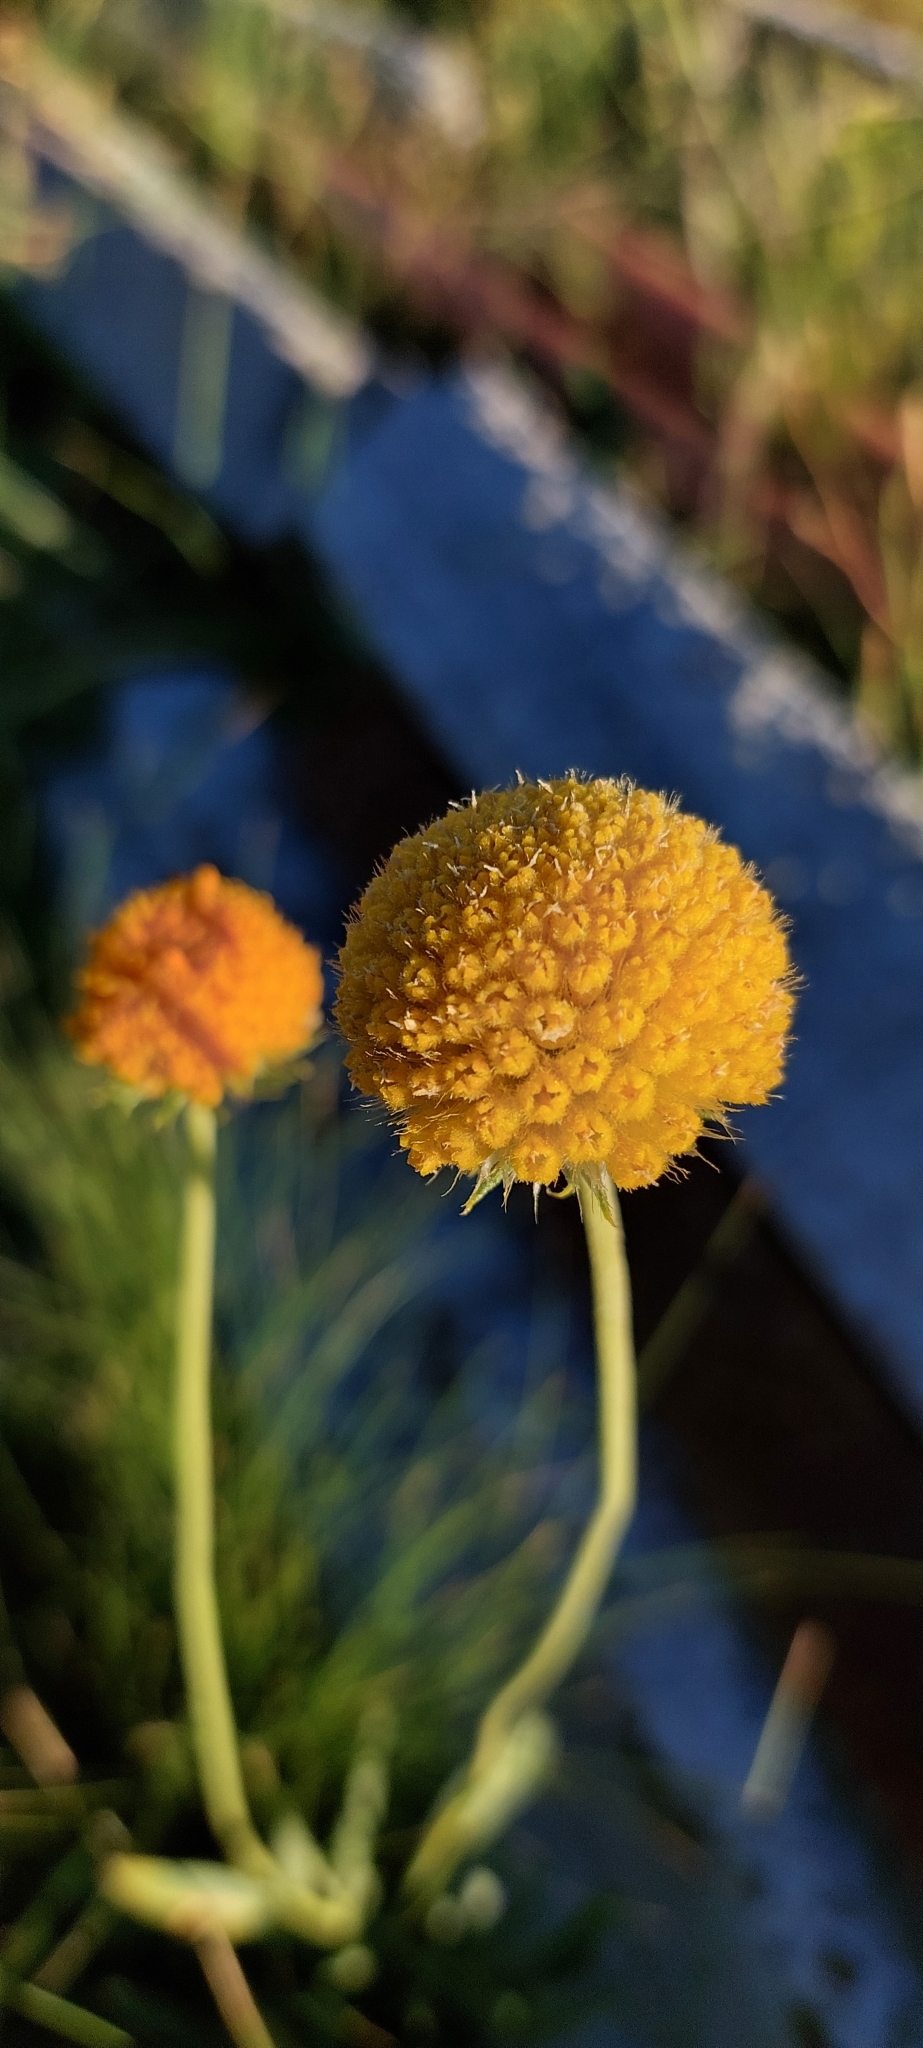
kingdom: Plantae
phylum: Tracheophyta
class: Magnoliopsida
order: Asterales
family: Asteraceae
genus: Gaillardia
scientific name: Gaillardia megapotamica
